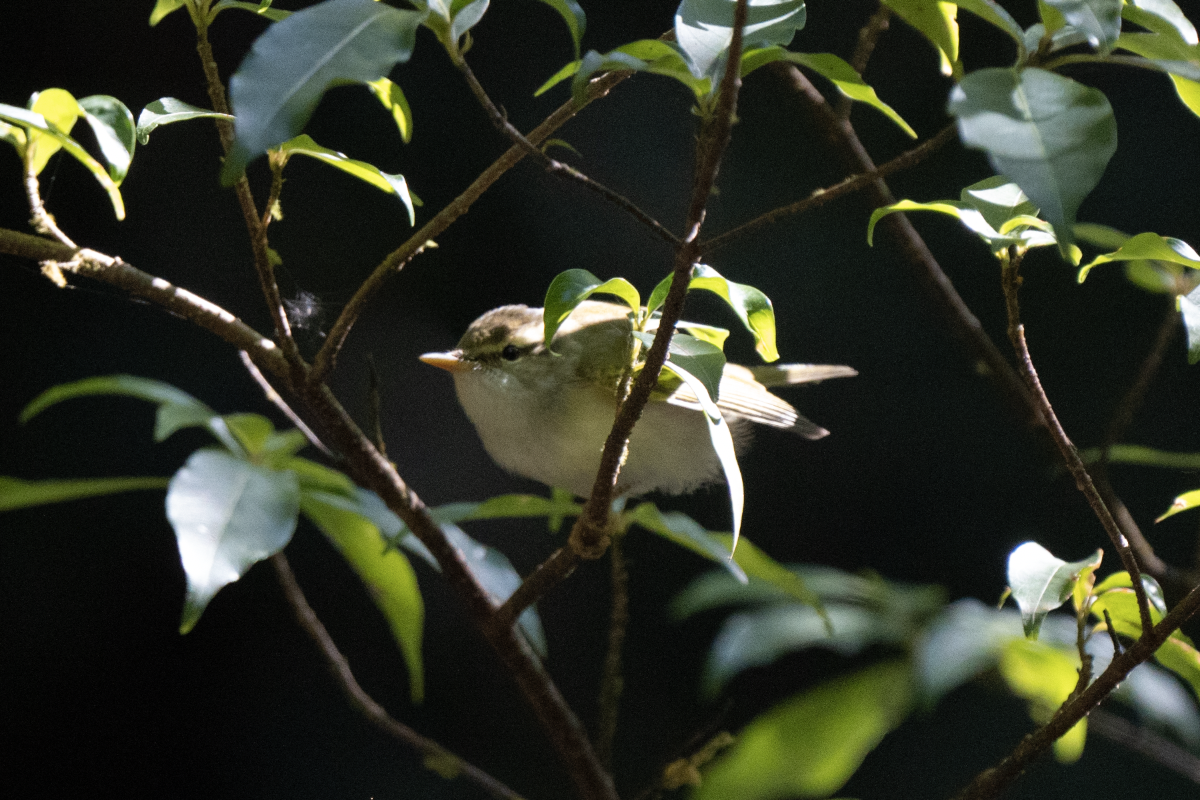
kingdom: Animalia
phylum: Chordata
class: Aves
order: Passeriformes
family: Phylloscopidae
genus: Phylloscopus
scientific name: Phylloscopus plumbeitarsus
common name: Two-barred warbler
